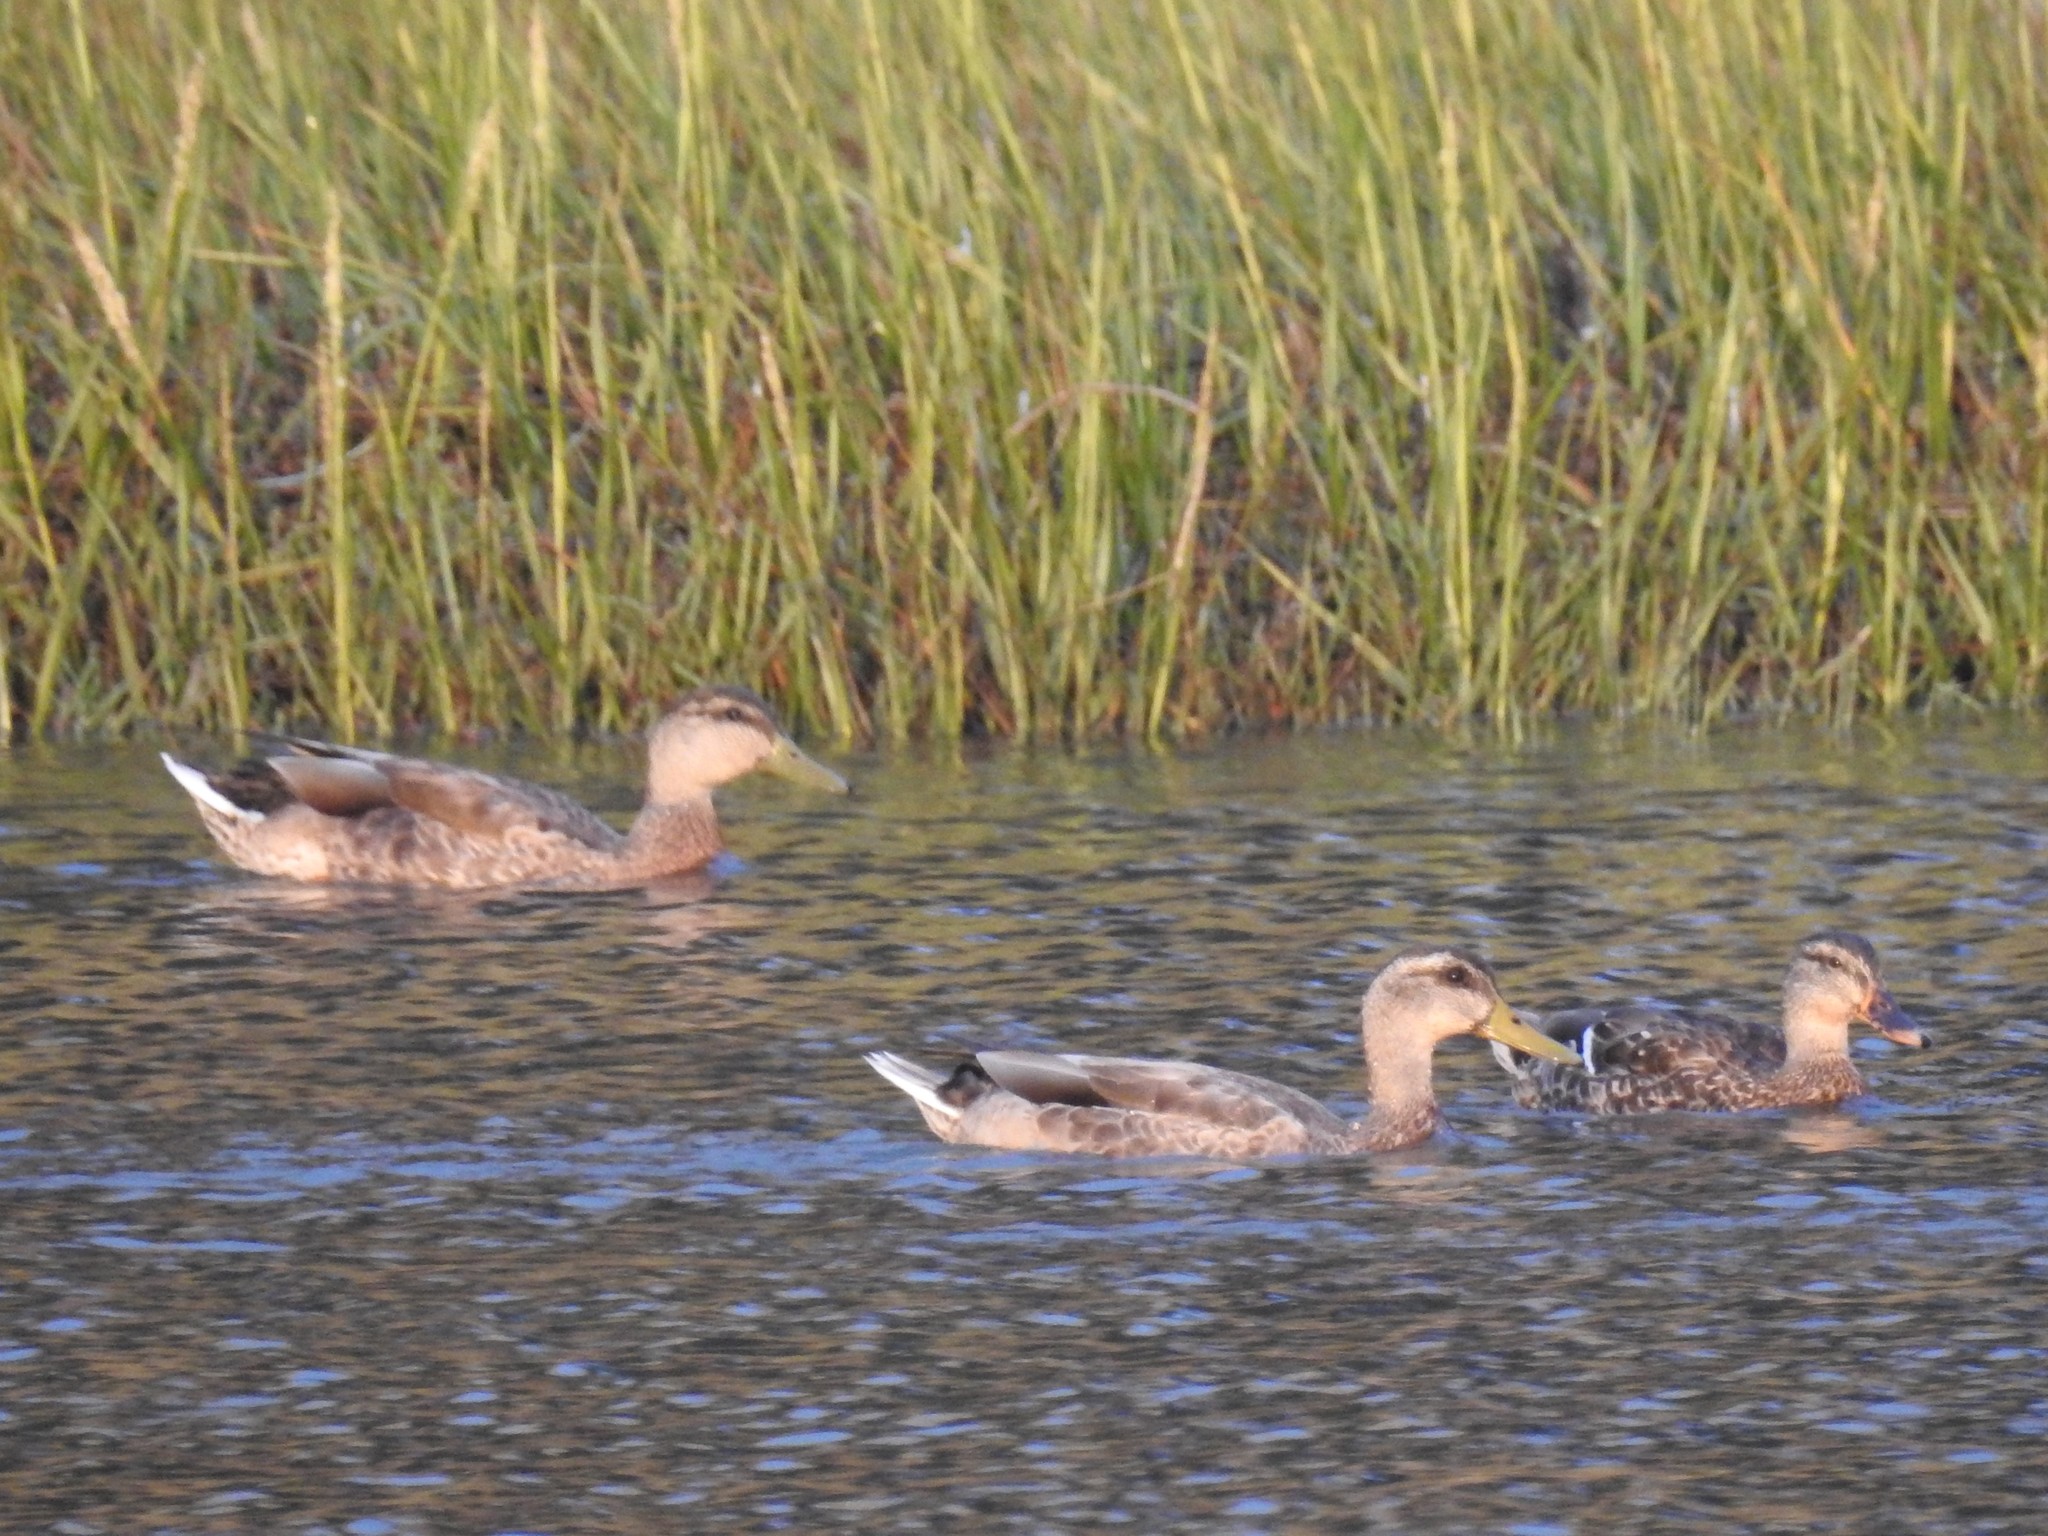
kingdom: Animalia
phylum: Chordata
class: Aves
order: Anseriformes
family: Anatidae
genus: Anas
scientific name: Anas platyrhynchos
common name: Mallard
